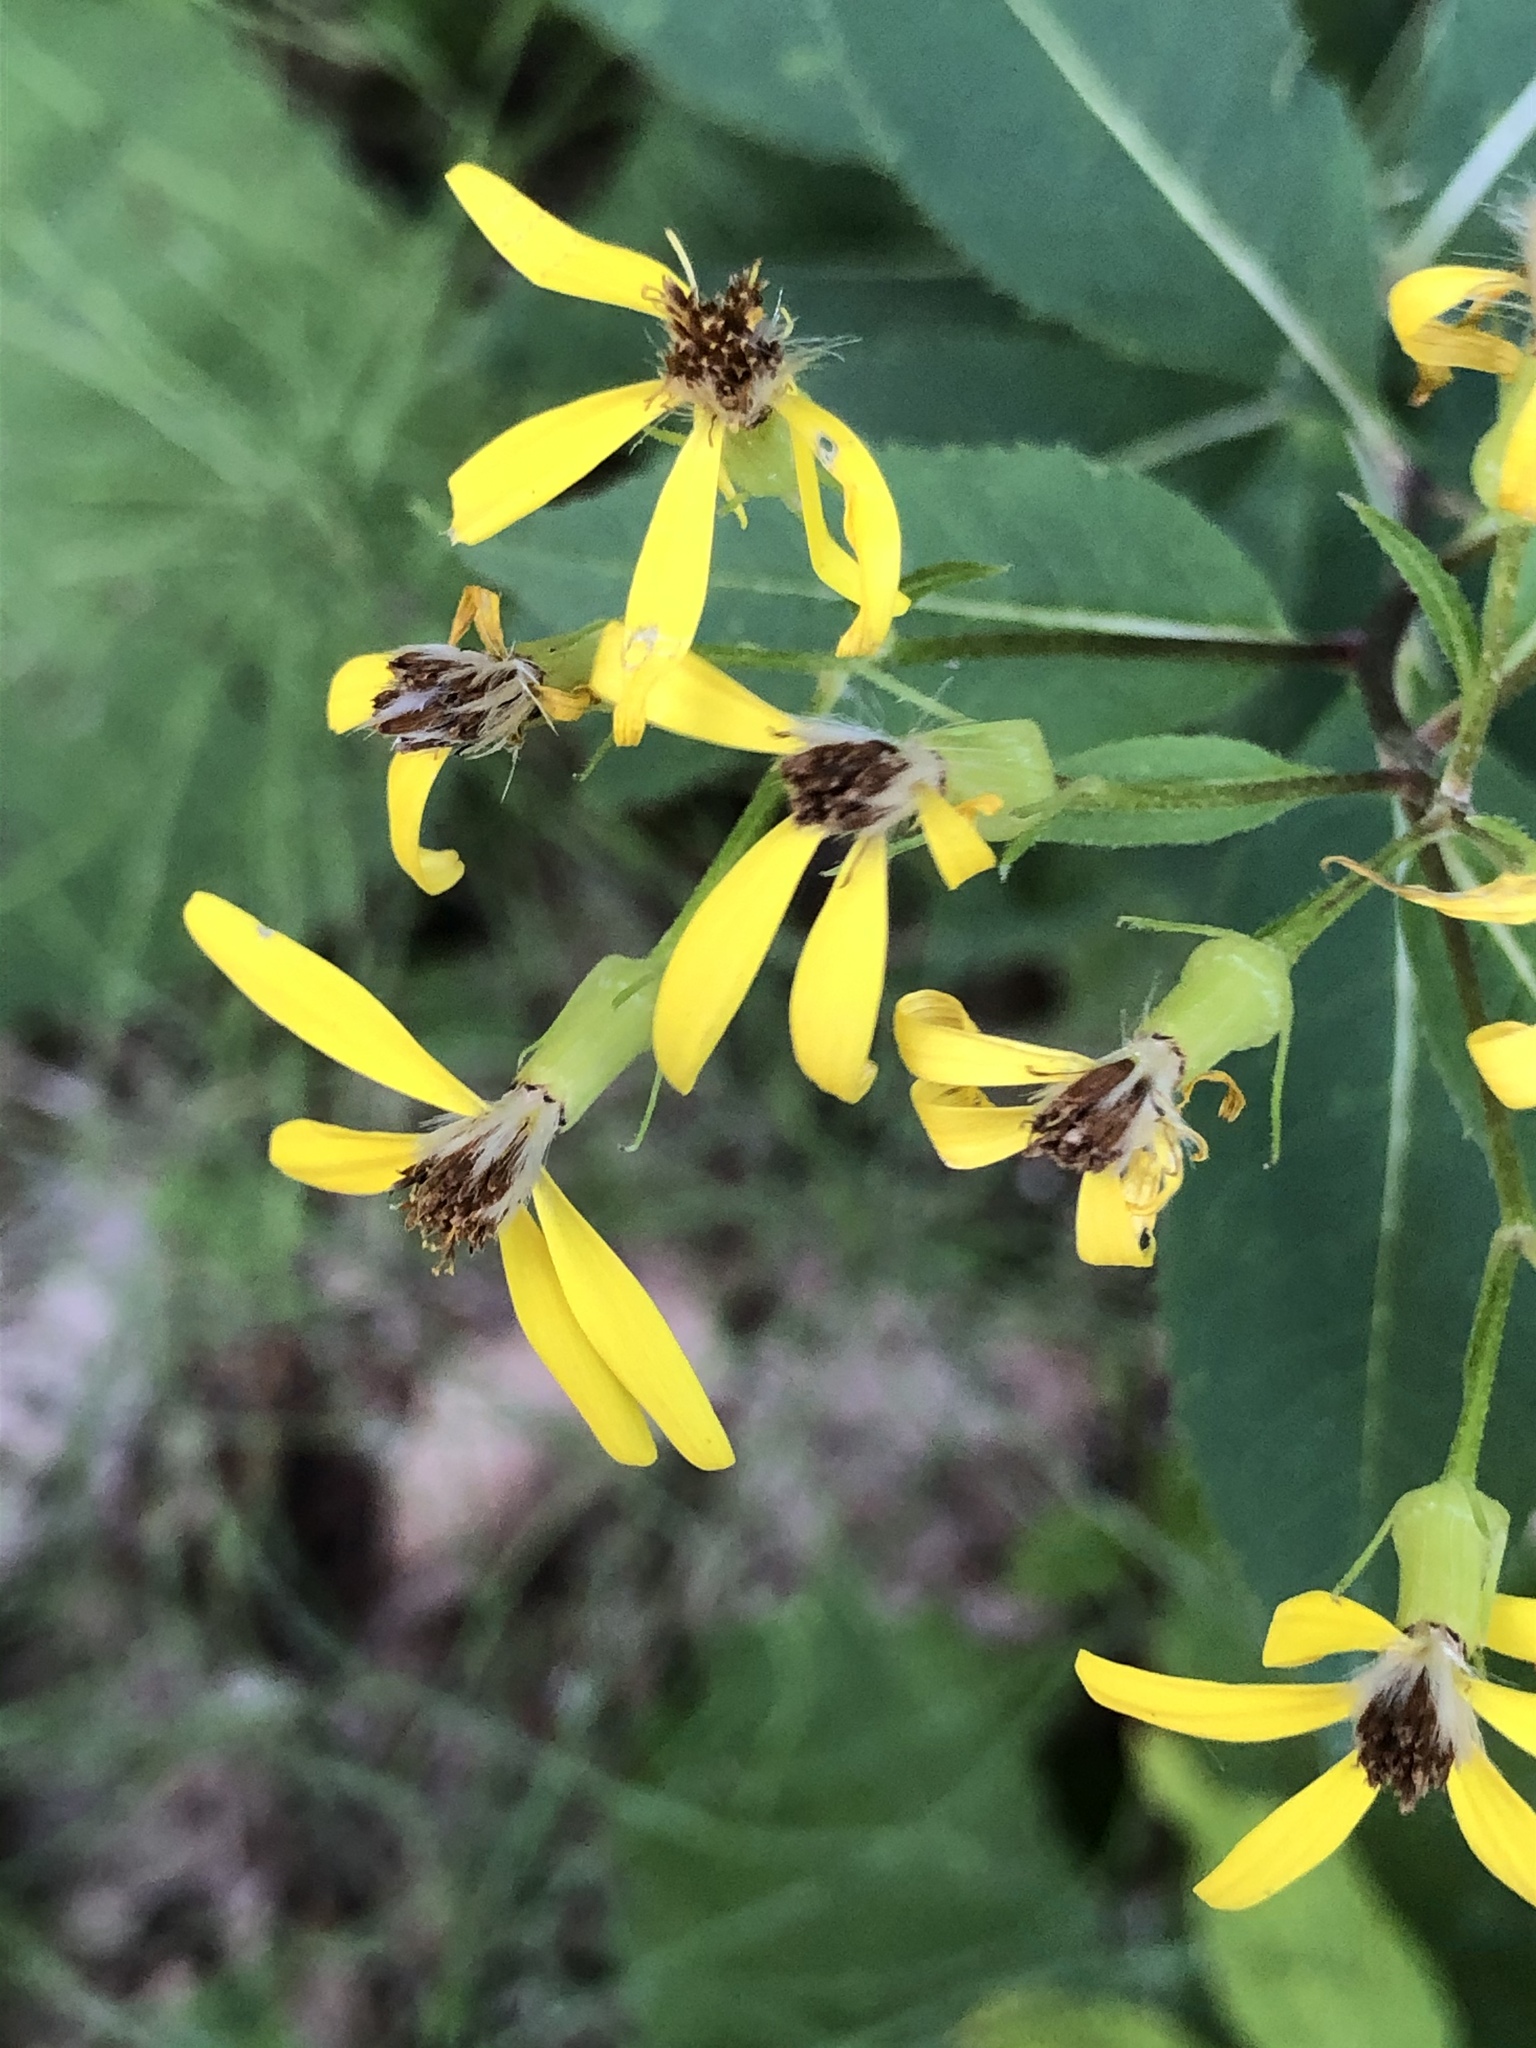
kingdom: Plantae
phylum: Tracheophyta
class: Magnoliopsida
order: Asterales
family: Asteraceae
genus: Senecio
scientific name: Senecio ovatus
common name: Wood ragwort
